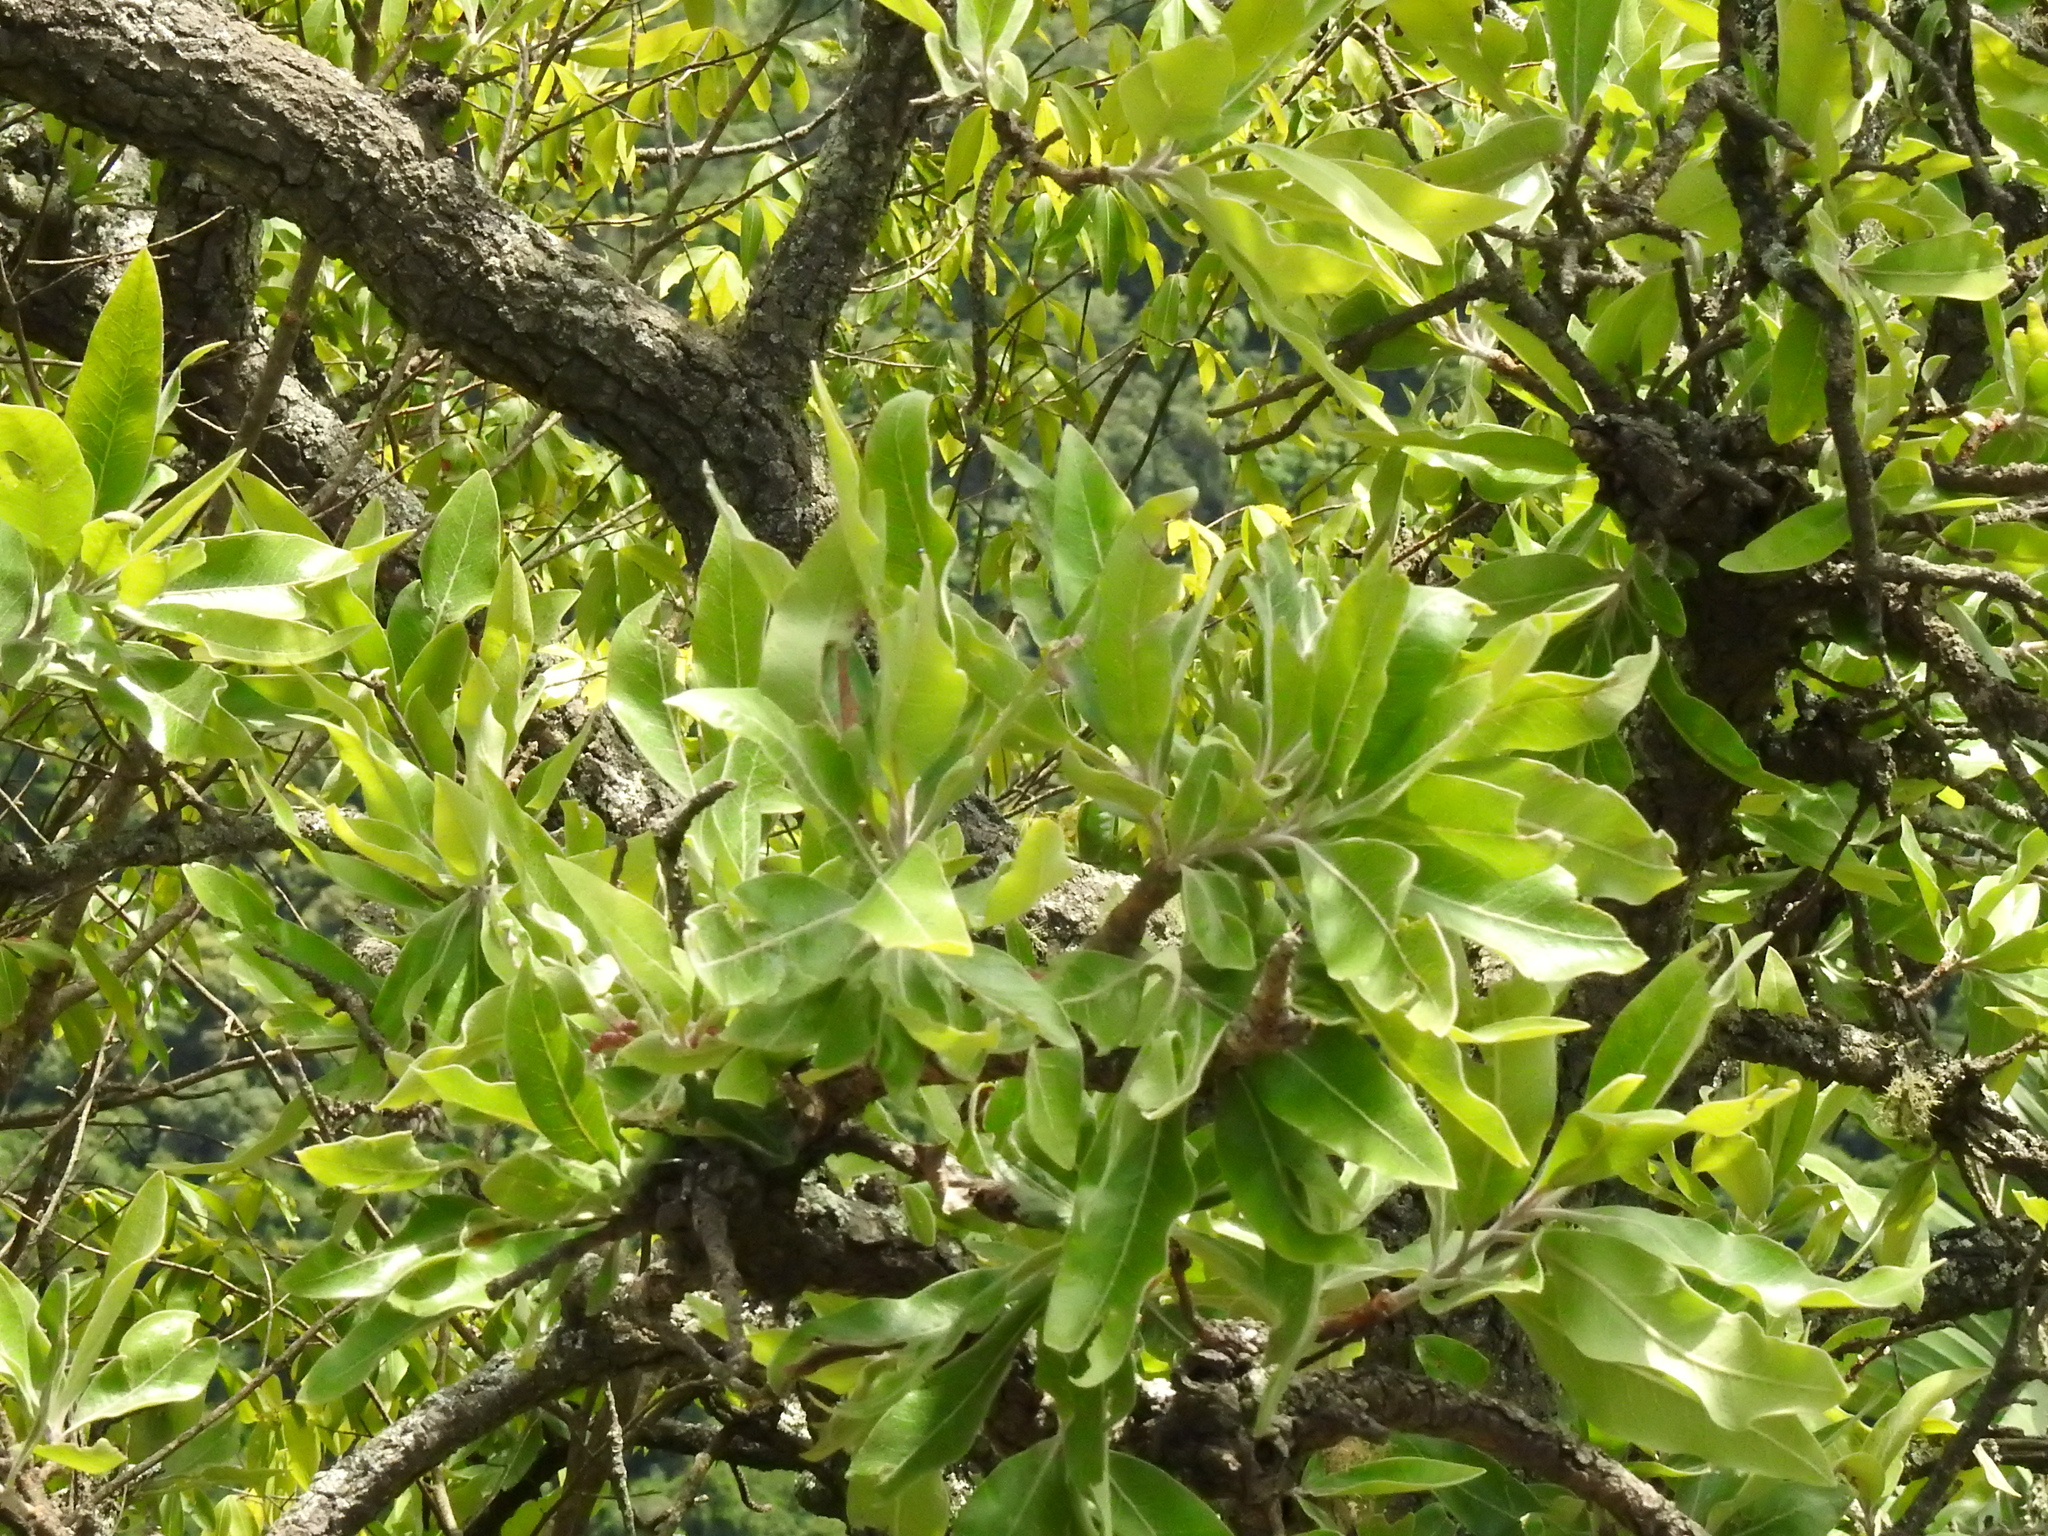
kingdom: Plantae
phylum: Tracheophyta
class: Magnoliopsida
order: Proteales
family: Proteaceae
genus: Faurea
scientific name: Faurea rochetiana
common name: Broad-leaved beech
